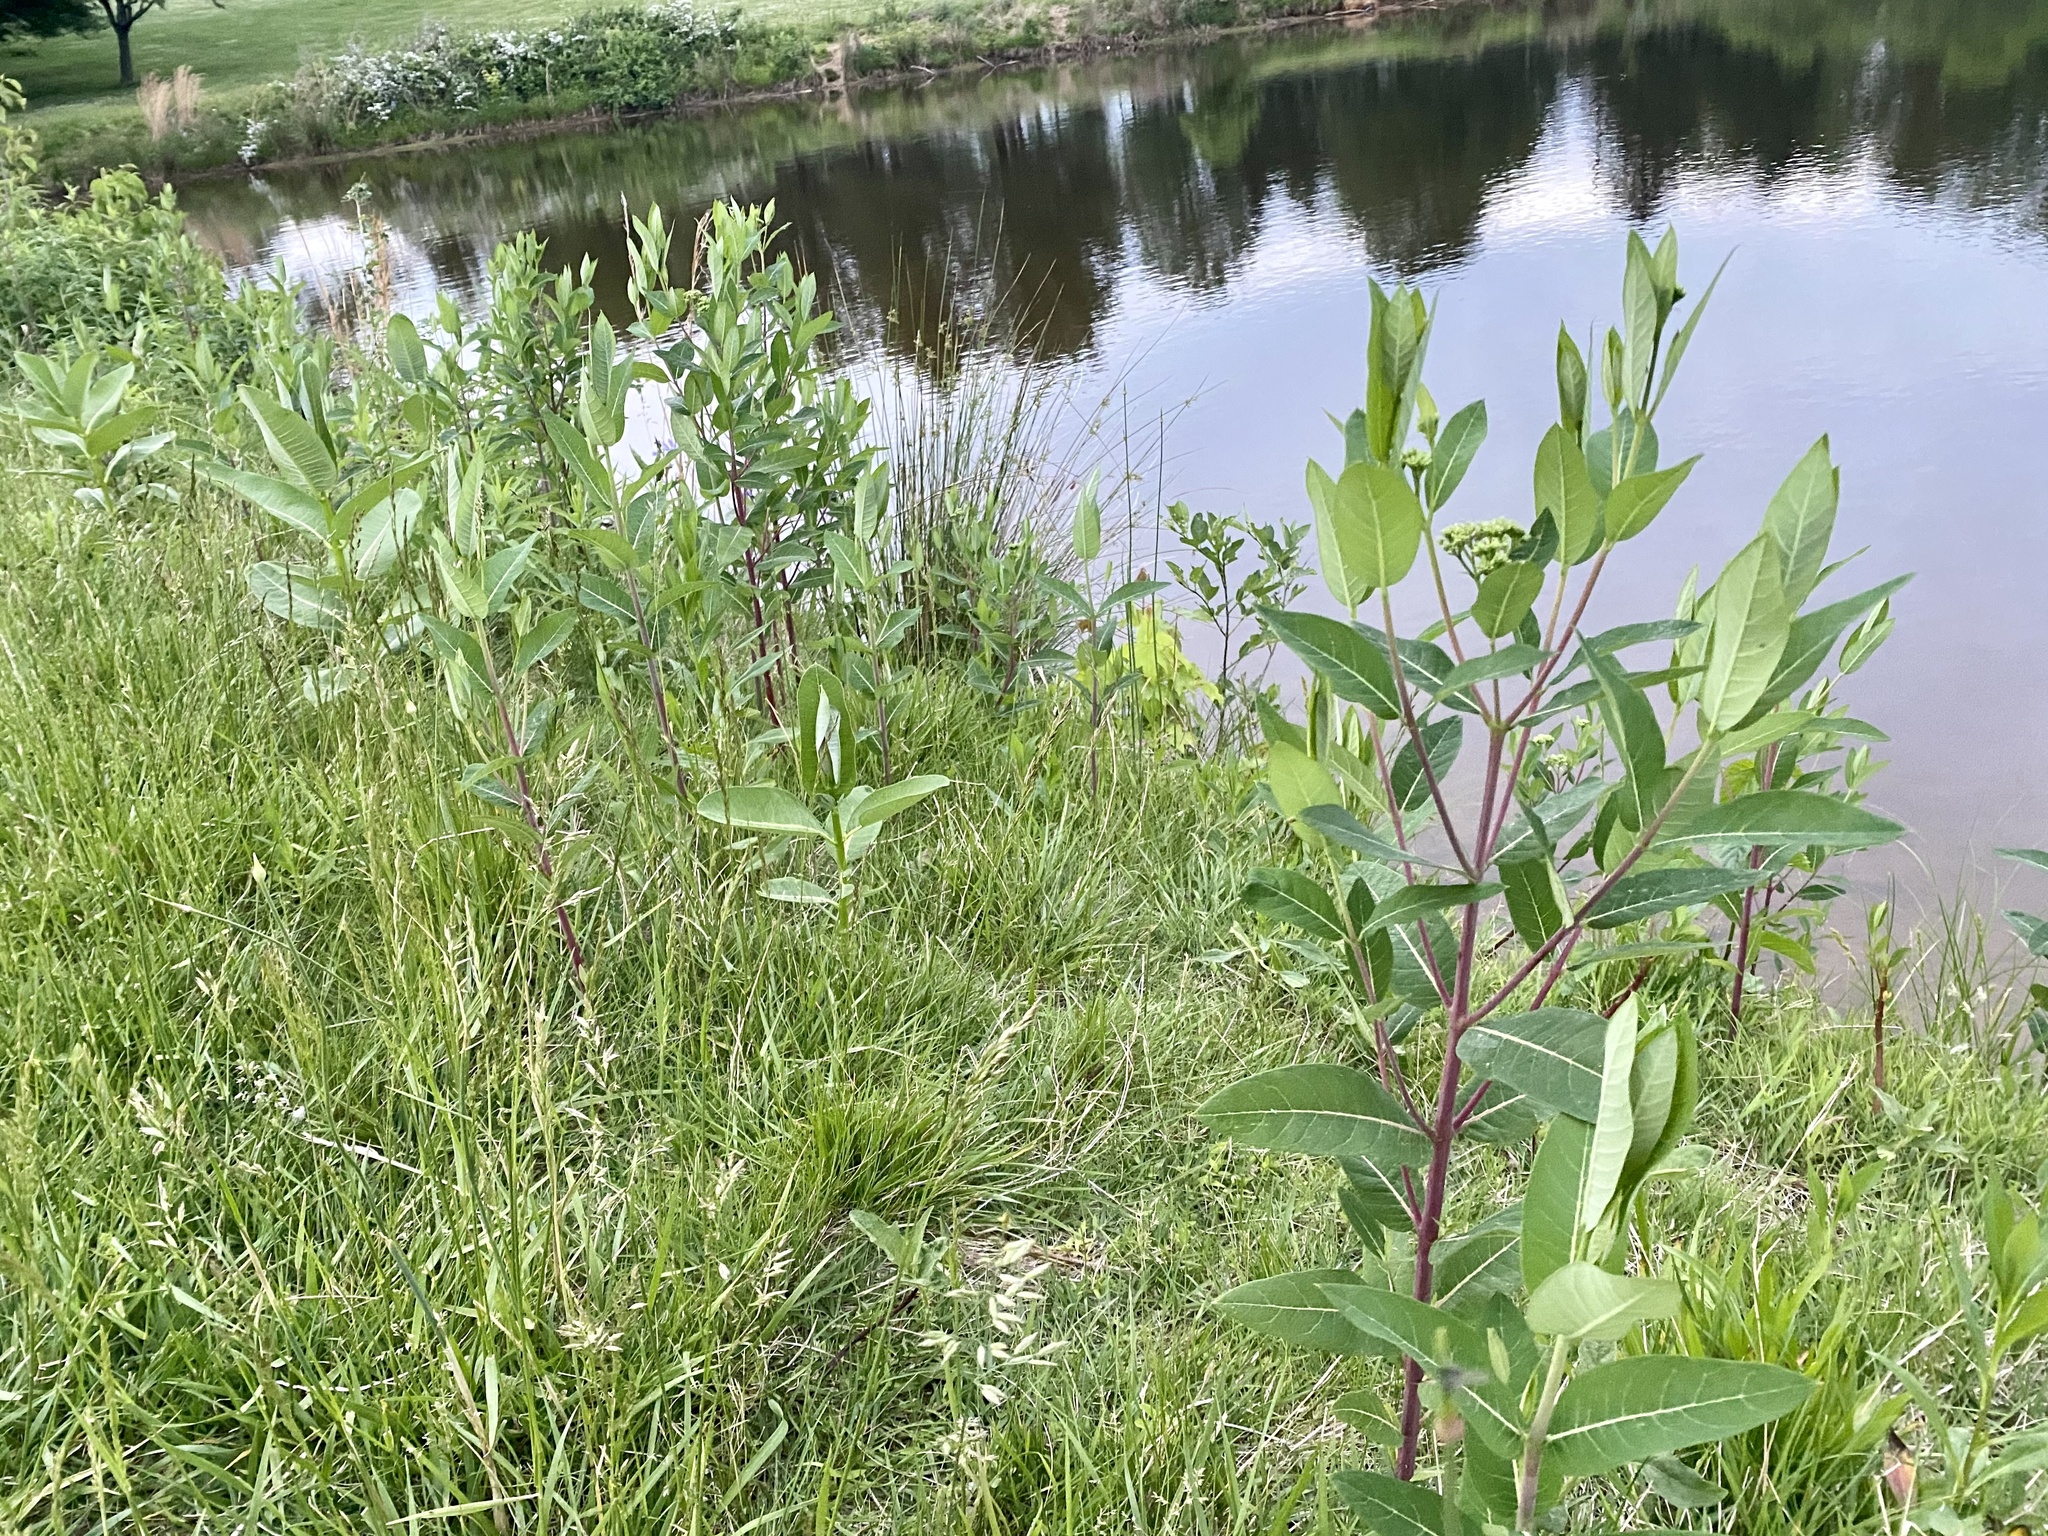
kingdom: Plantae
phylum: Tracheophyta
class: Magnoliopsida
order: Gentianales
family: Apocynaceae
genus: Apocynum
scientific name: Apocynum cannabinum
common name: Hemp dogbane
